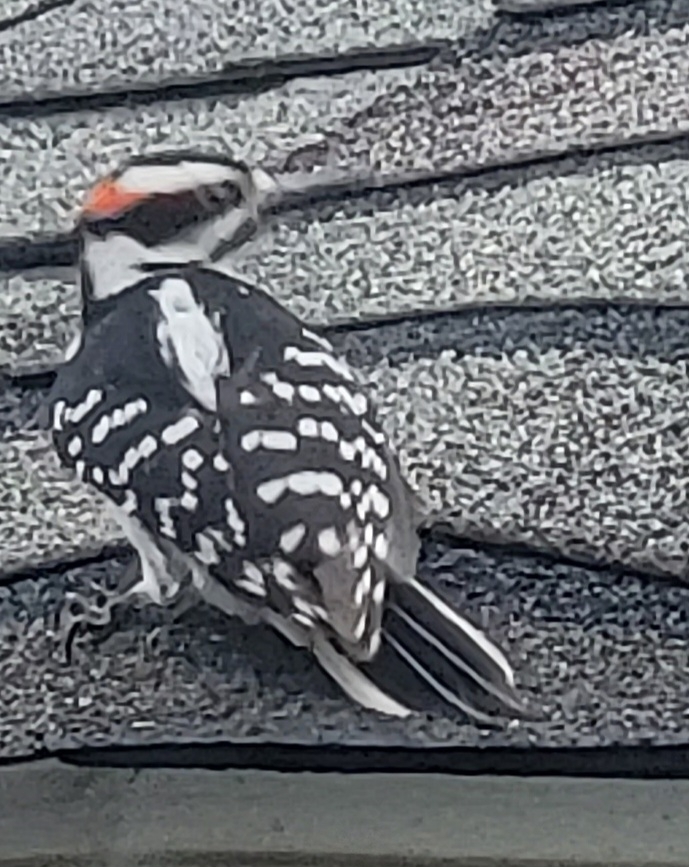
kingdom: Animalia
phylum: Chordata
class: Aves
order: Piciformes
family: Picidae
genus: Leuconotopicus
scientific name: Leuconotopicus villosus
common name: Hairy woodpecker
